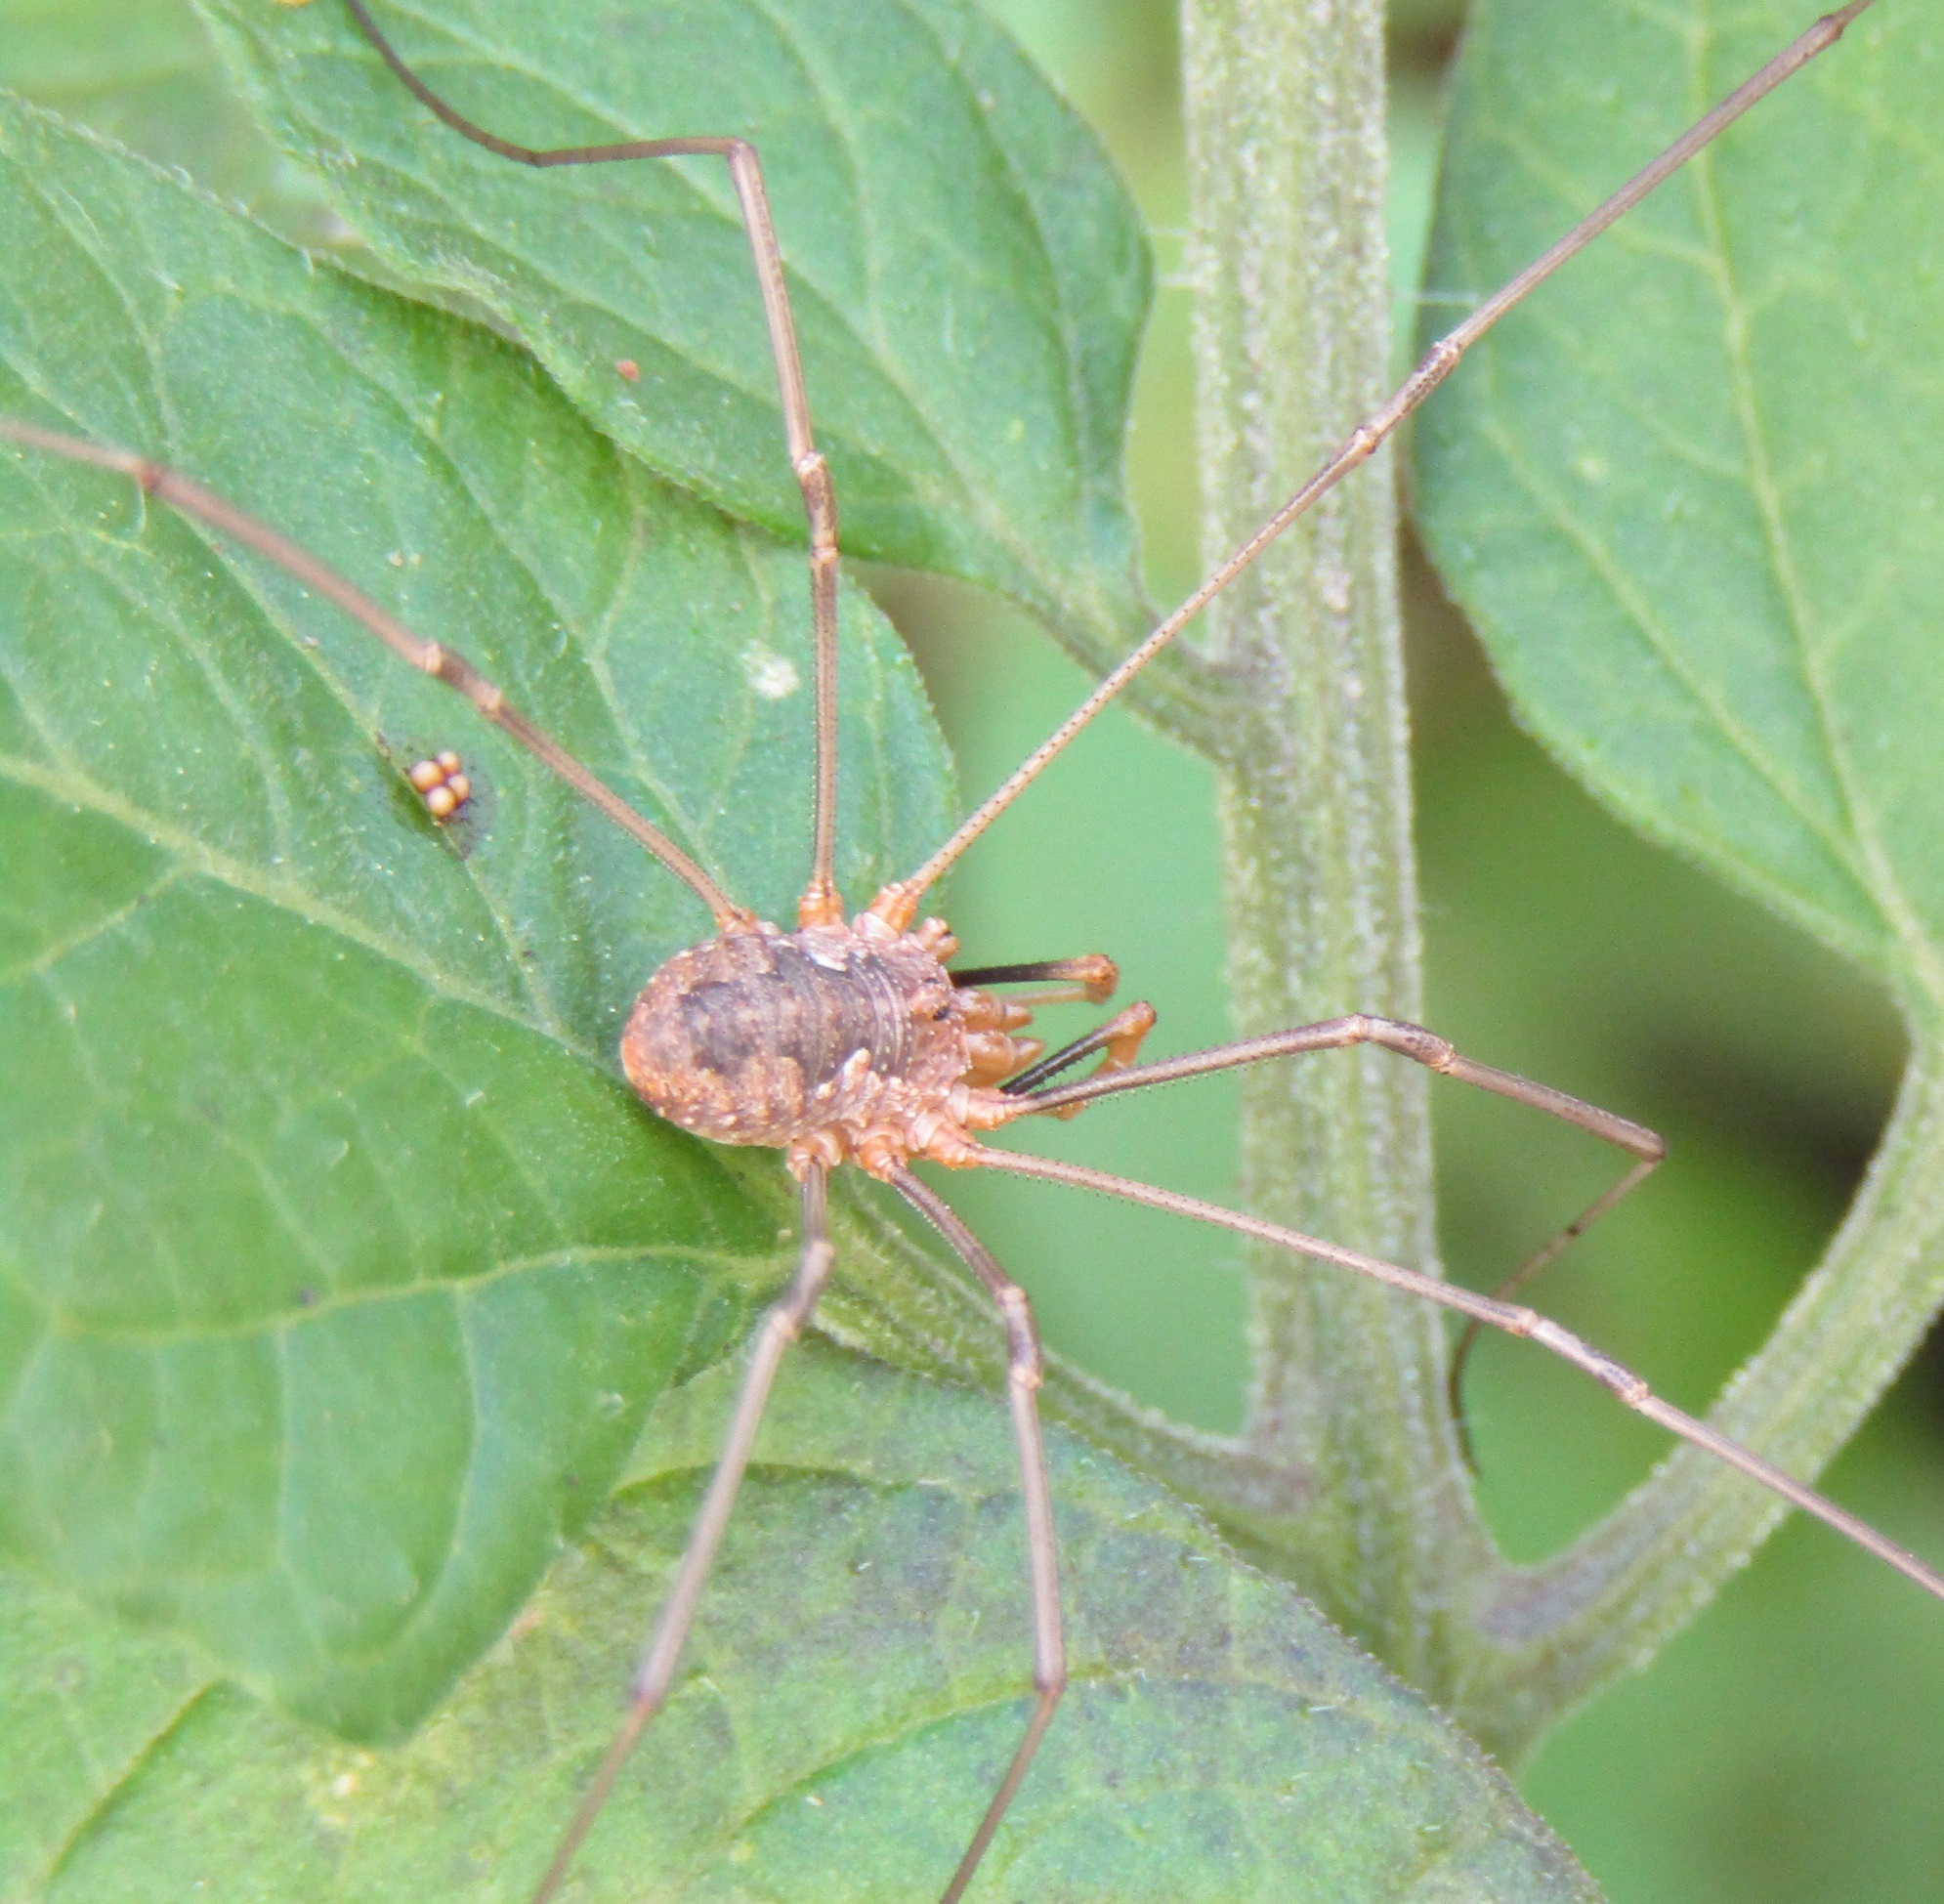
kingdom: Animalia
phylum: Arthropoda
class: Arachnida
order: Opiliones
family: Phalangiidae
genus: Phalangium
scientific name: Phalangium opilio
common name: Daddy longleg
